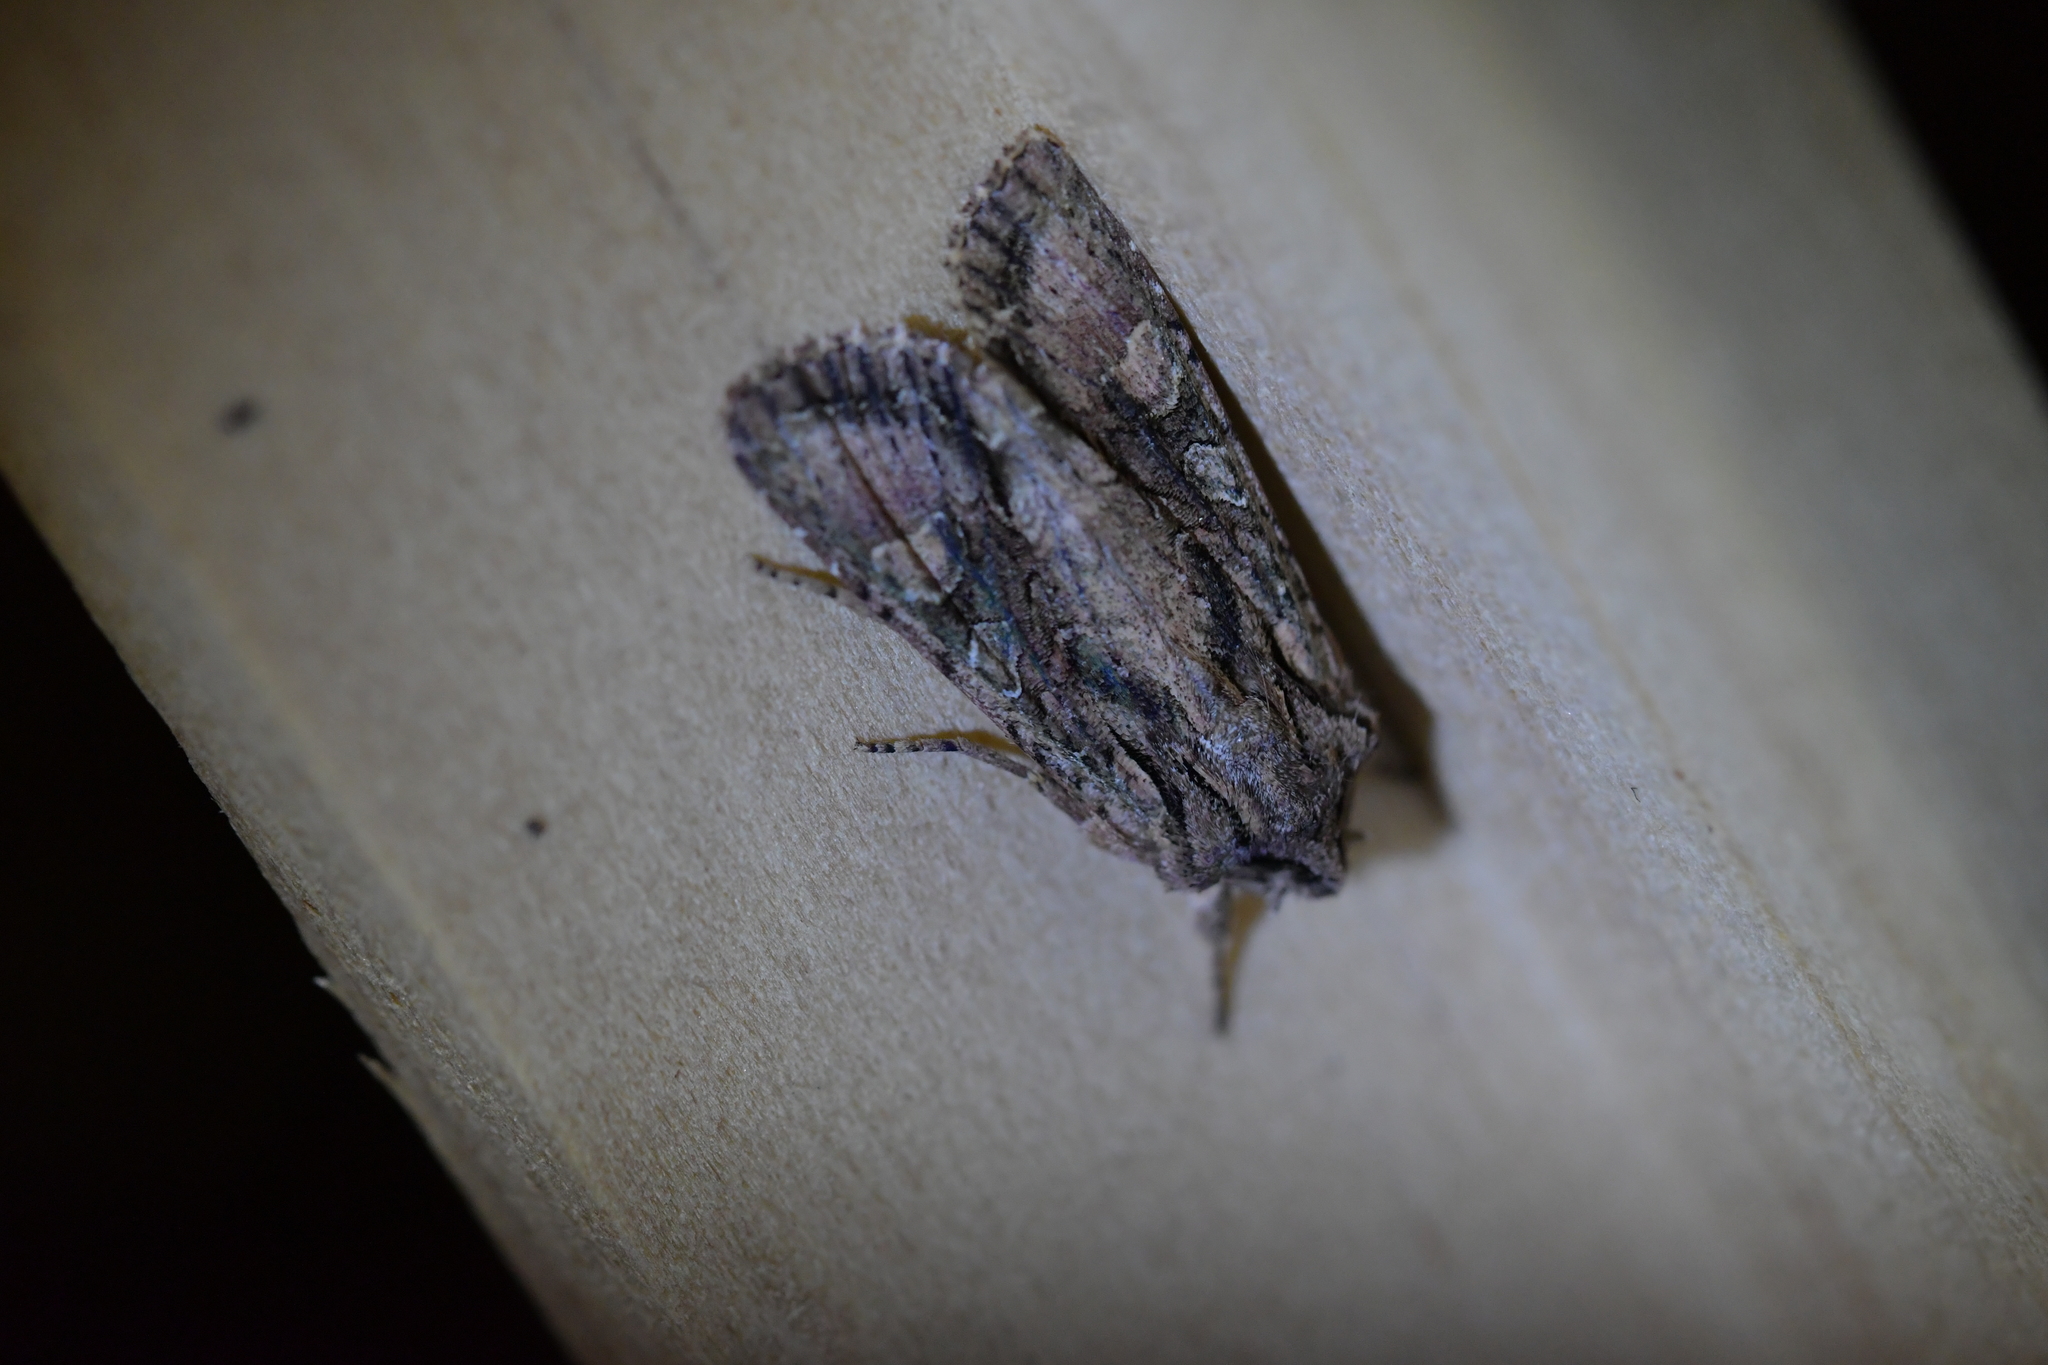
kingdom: Animalia
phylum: Arthropoda
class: Insecta
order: Lepidoptera
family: Noctuidae
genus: Ichneutica
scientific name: Ichneutica mutans
